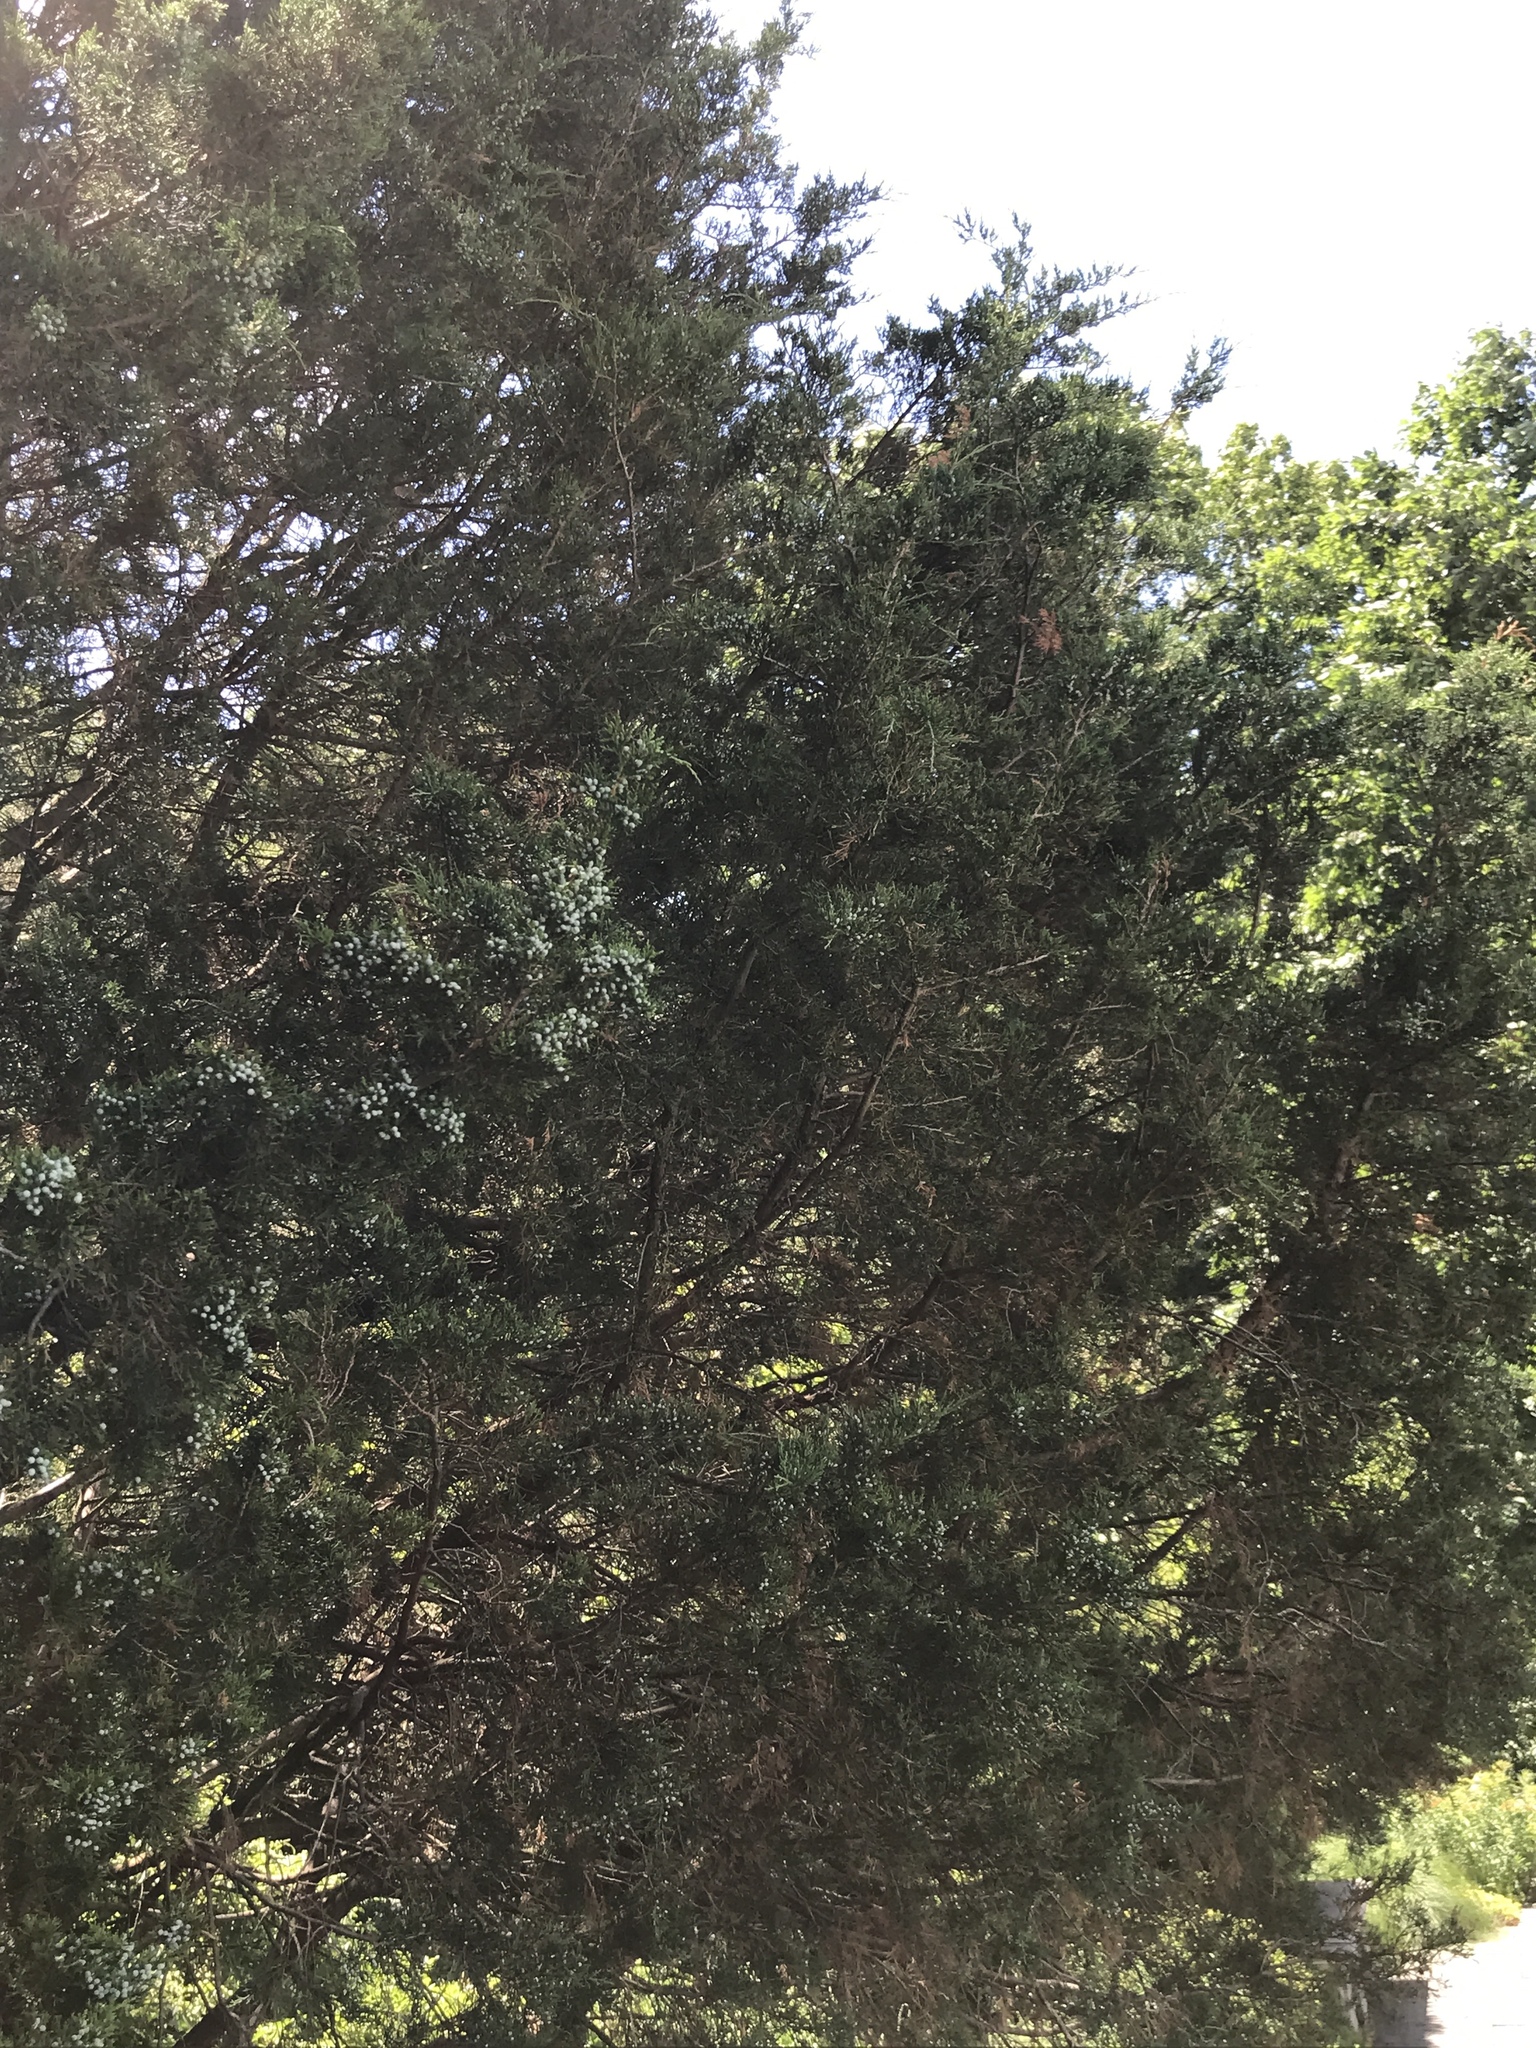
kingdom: Plantae
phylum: Tracheophyta
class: Pinopsida
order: Pinales
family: Cupressaceae
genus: Juniperus
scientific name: Juniperus virginiana
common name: Red juniper
